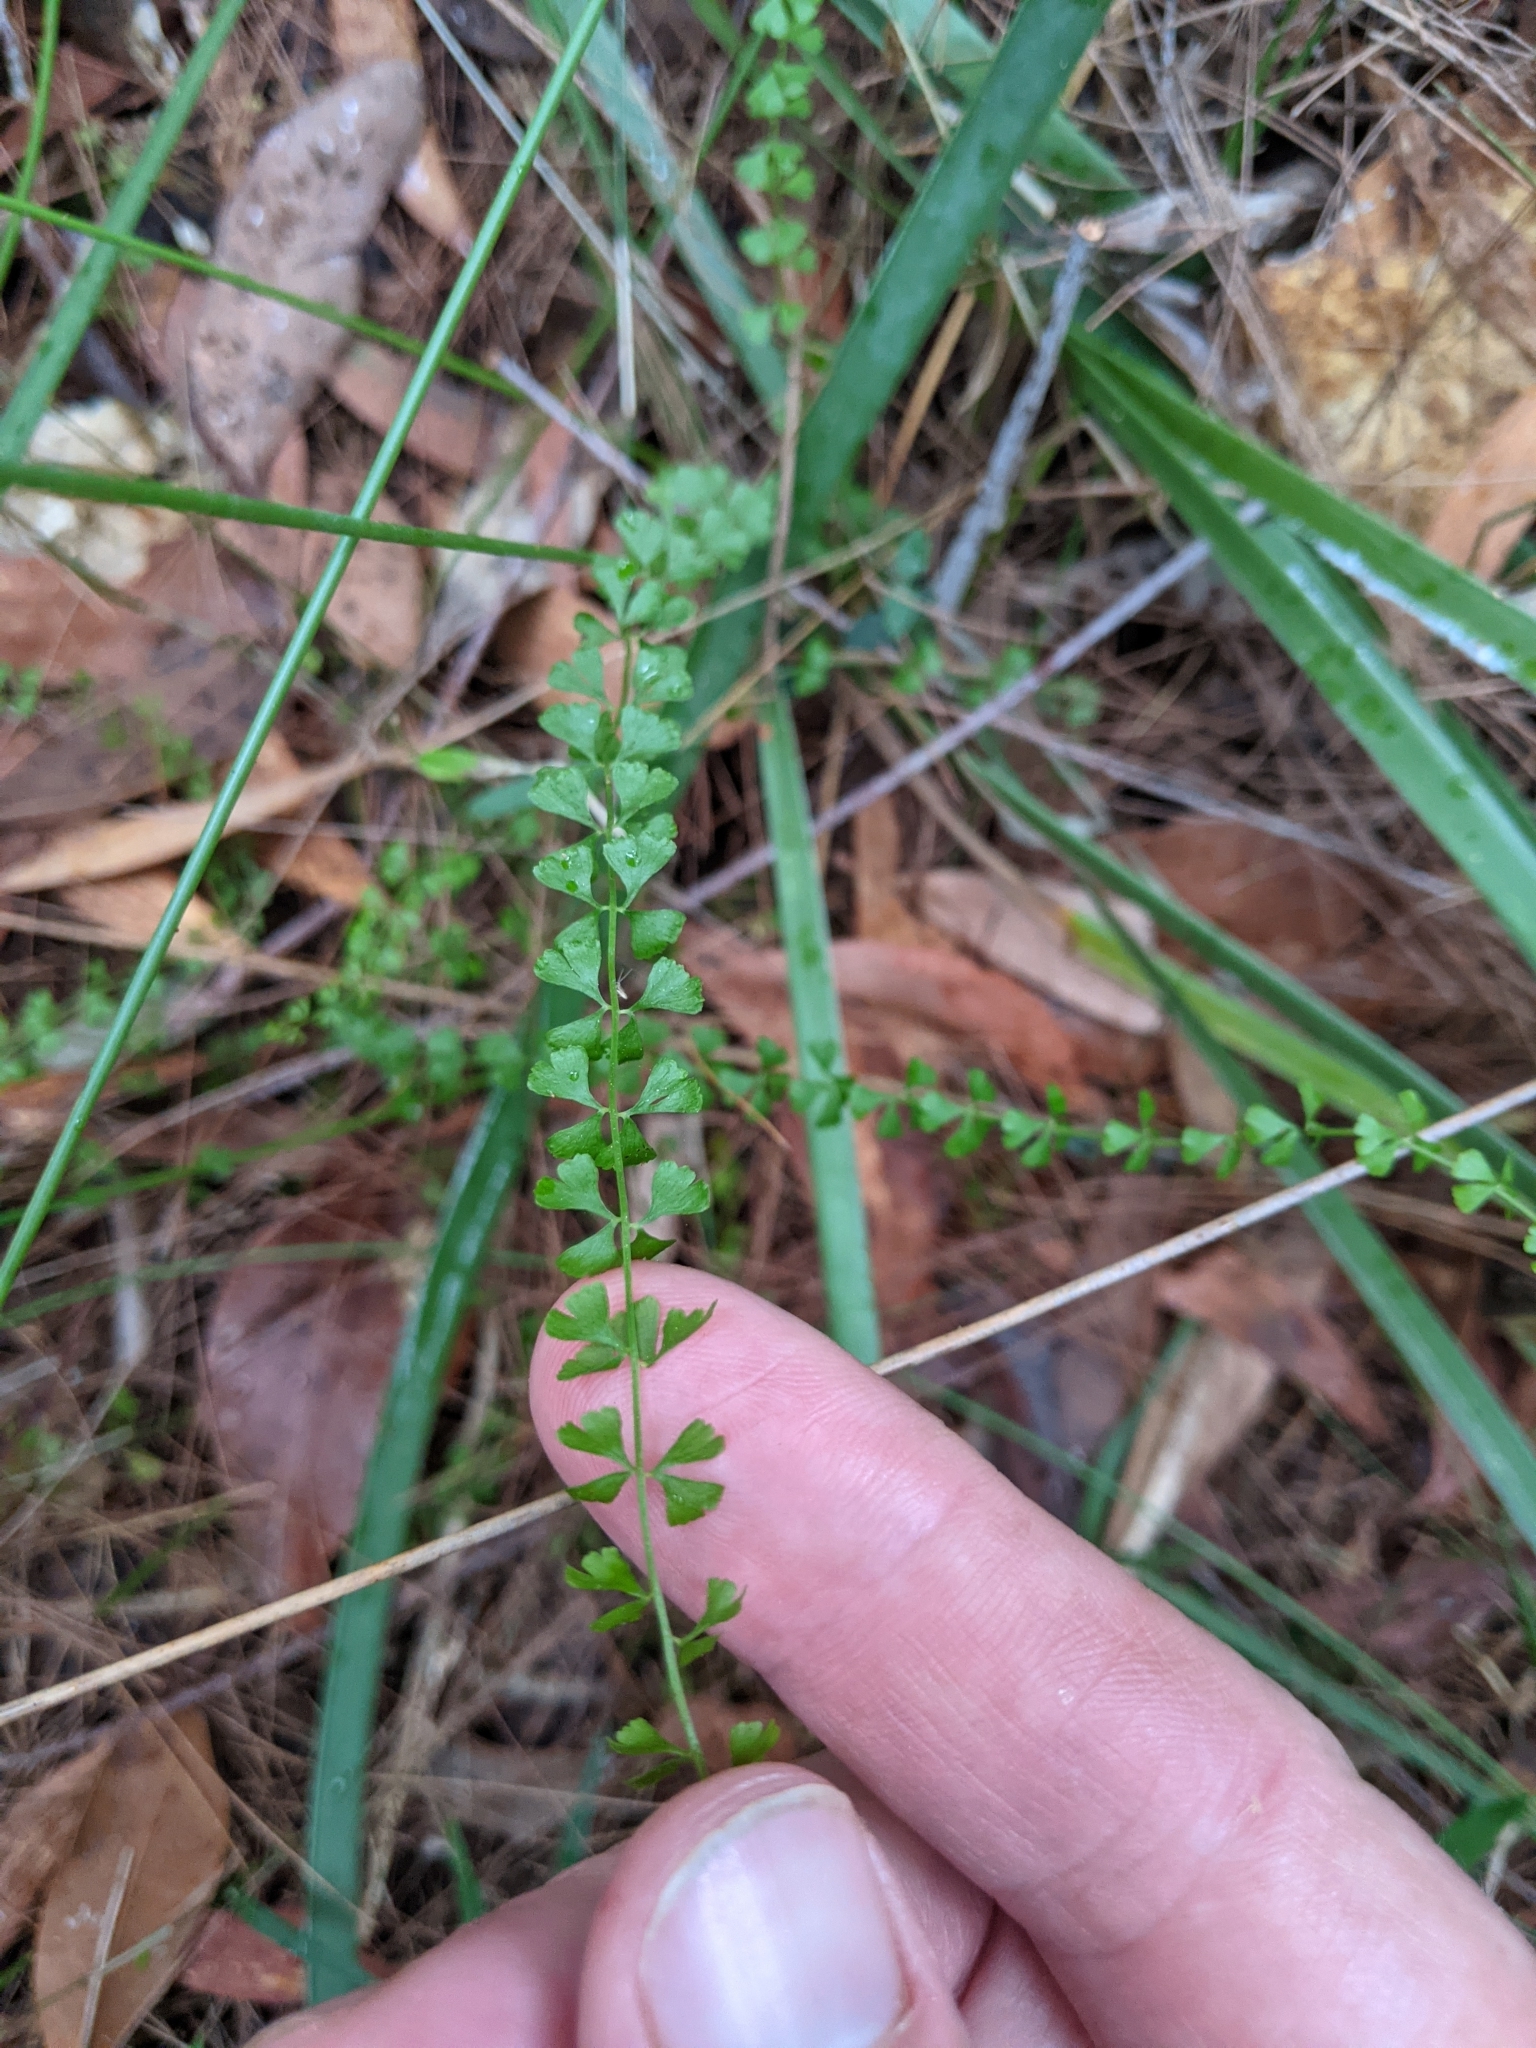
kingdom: Plantae
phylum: Tracheophyta
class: Polypodiopsida
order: Polypodiales
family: Lindsaeaceae
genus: Lindsaea
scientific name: Lindsaea incisa
